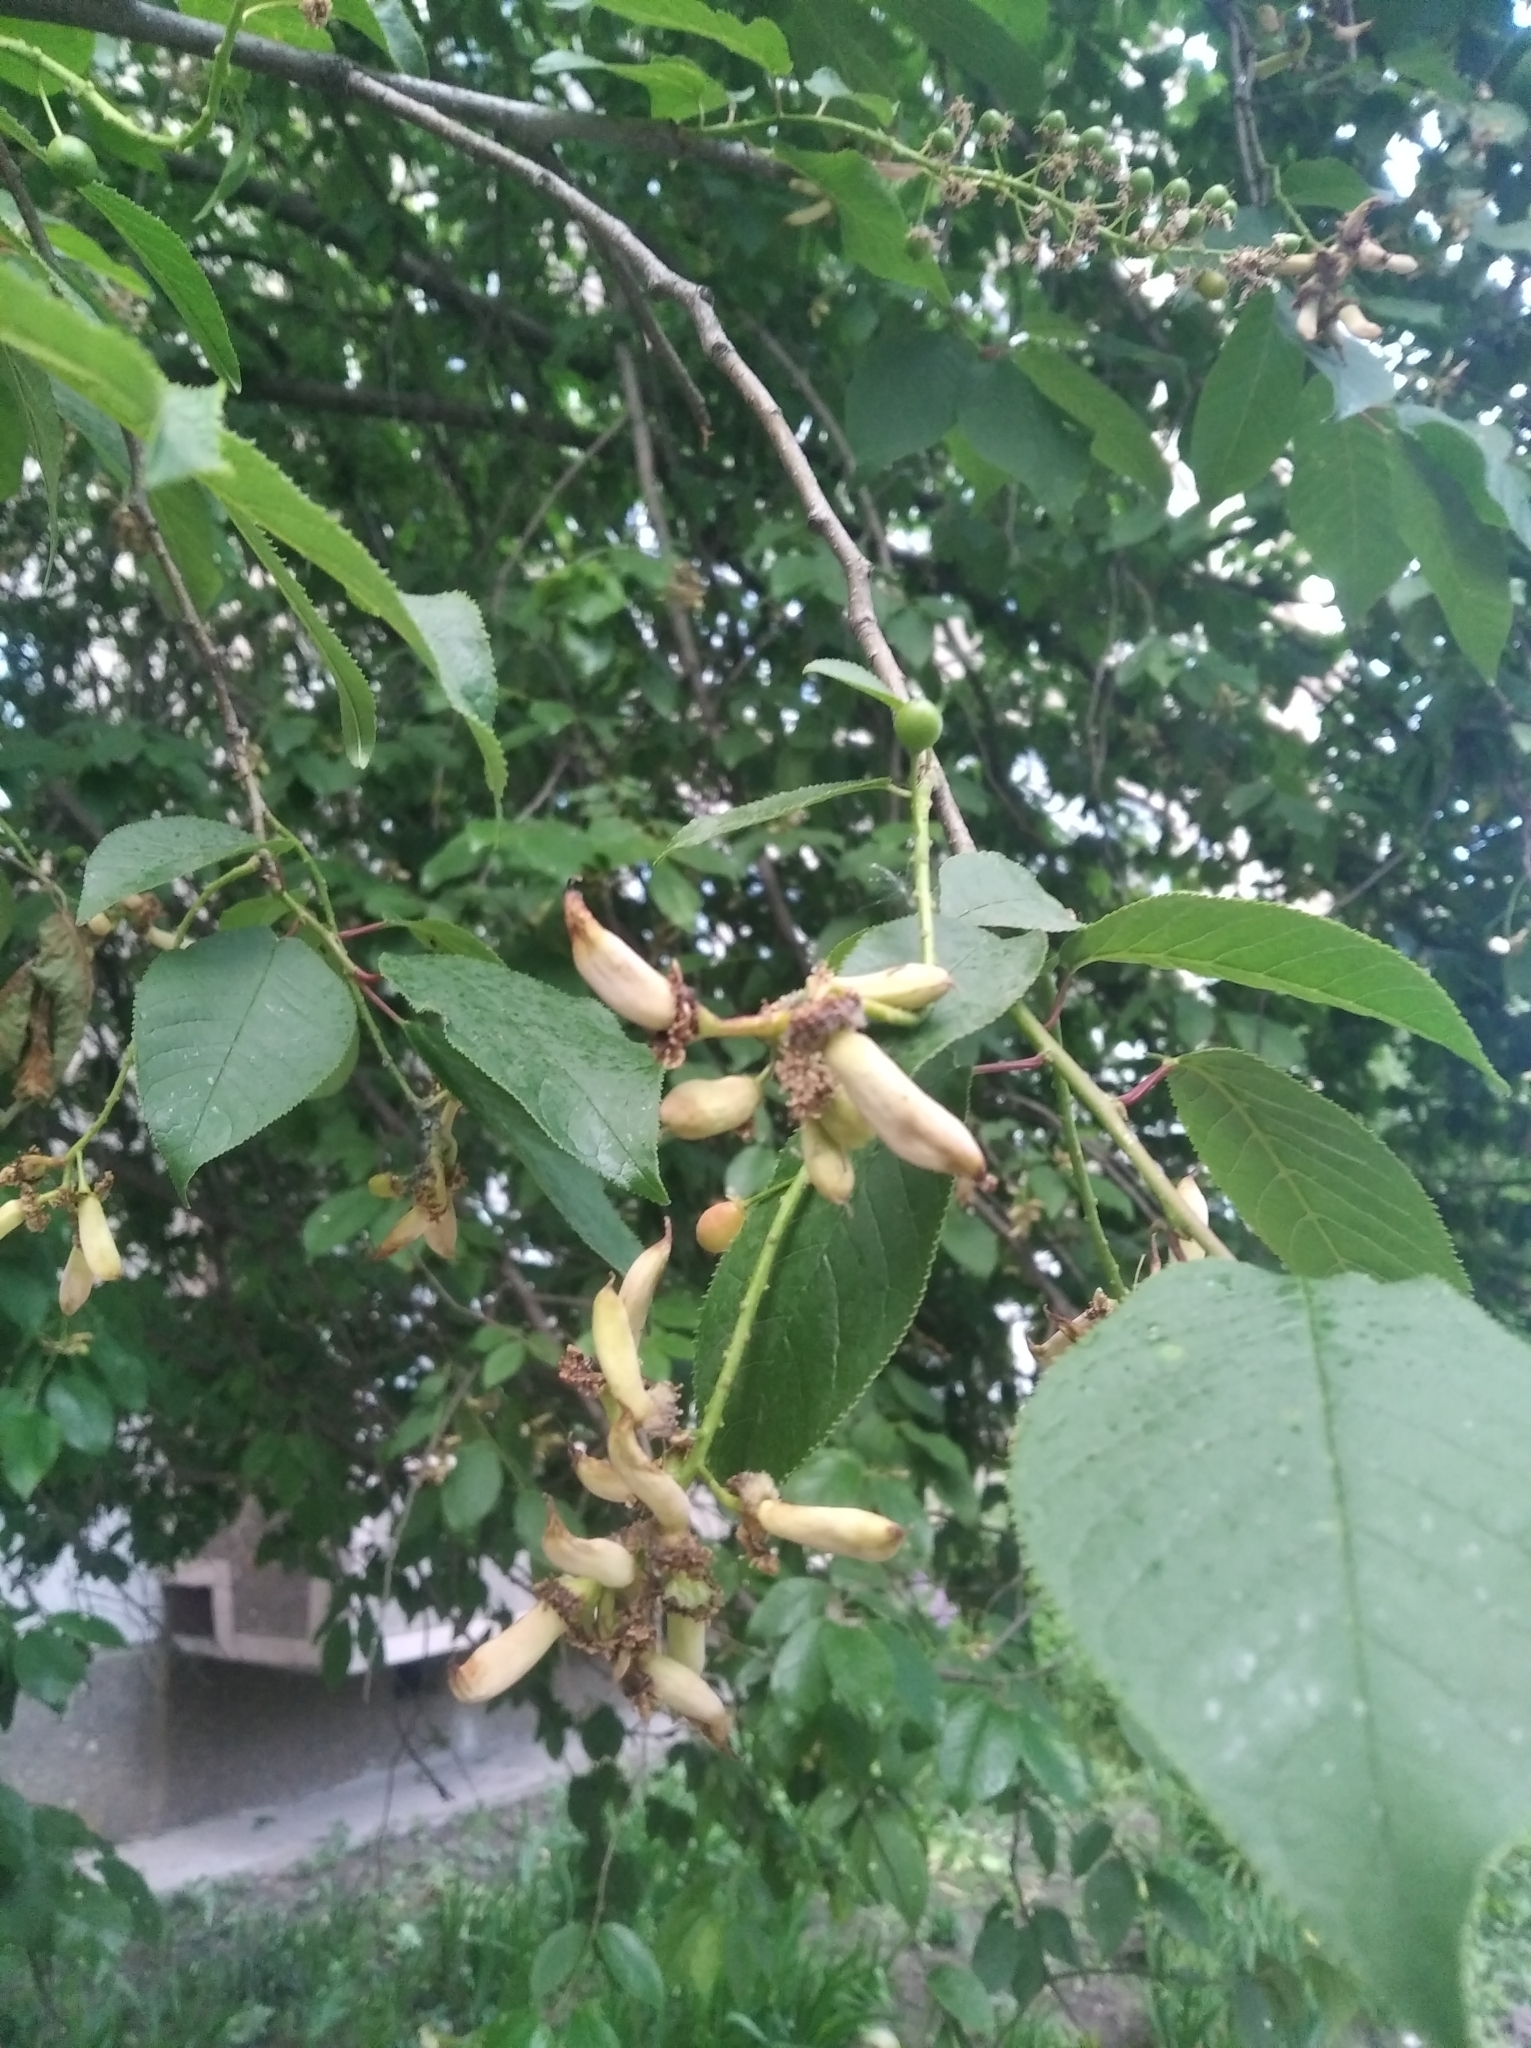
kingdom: Fungi
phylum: Ascomycota
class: Taphrinomycetes
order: Taphrinales
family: Taphrinaceae
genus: Taphrina
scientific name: Taphrina padi
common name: Bird cherry pocket
